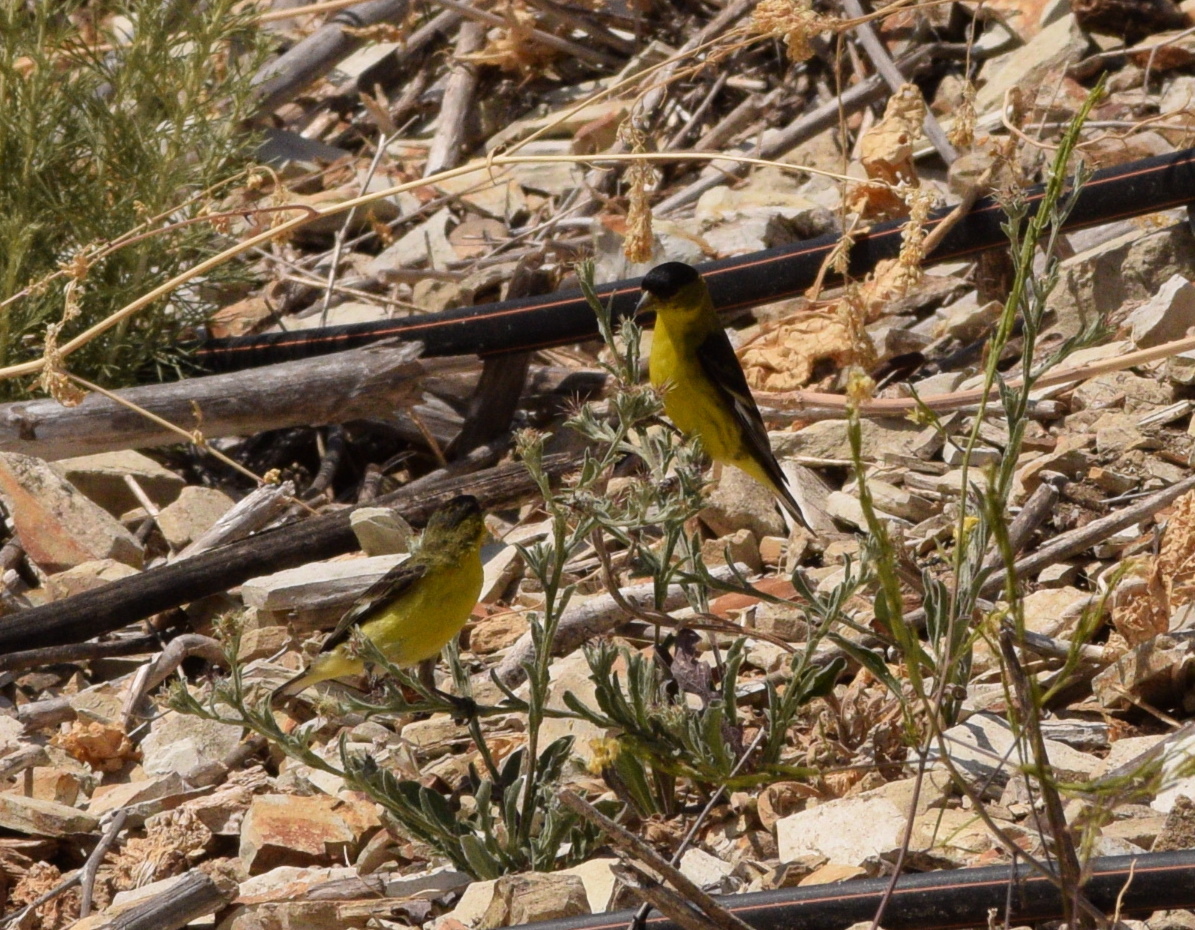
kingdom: Animalia
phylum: Chordata
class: Aves
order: Passeriformes
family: Fringillidae
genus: Spinus
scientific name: Spinus psaltria
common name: Lesser goldfinch
